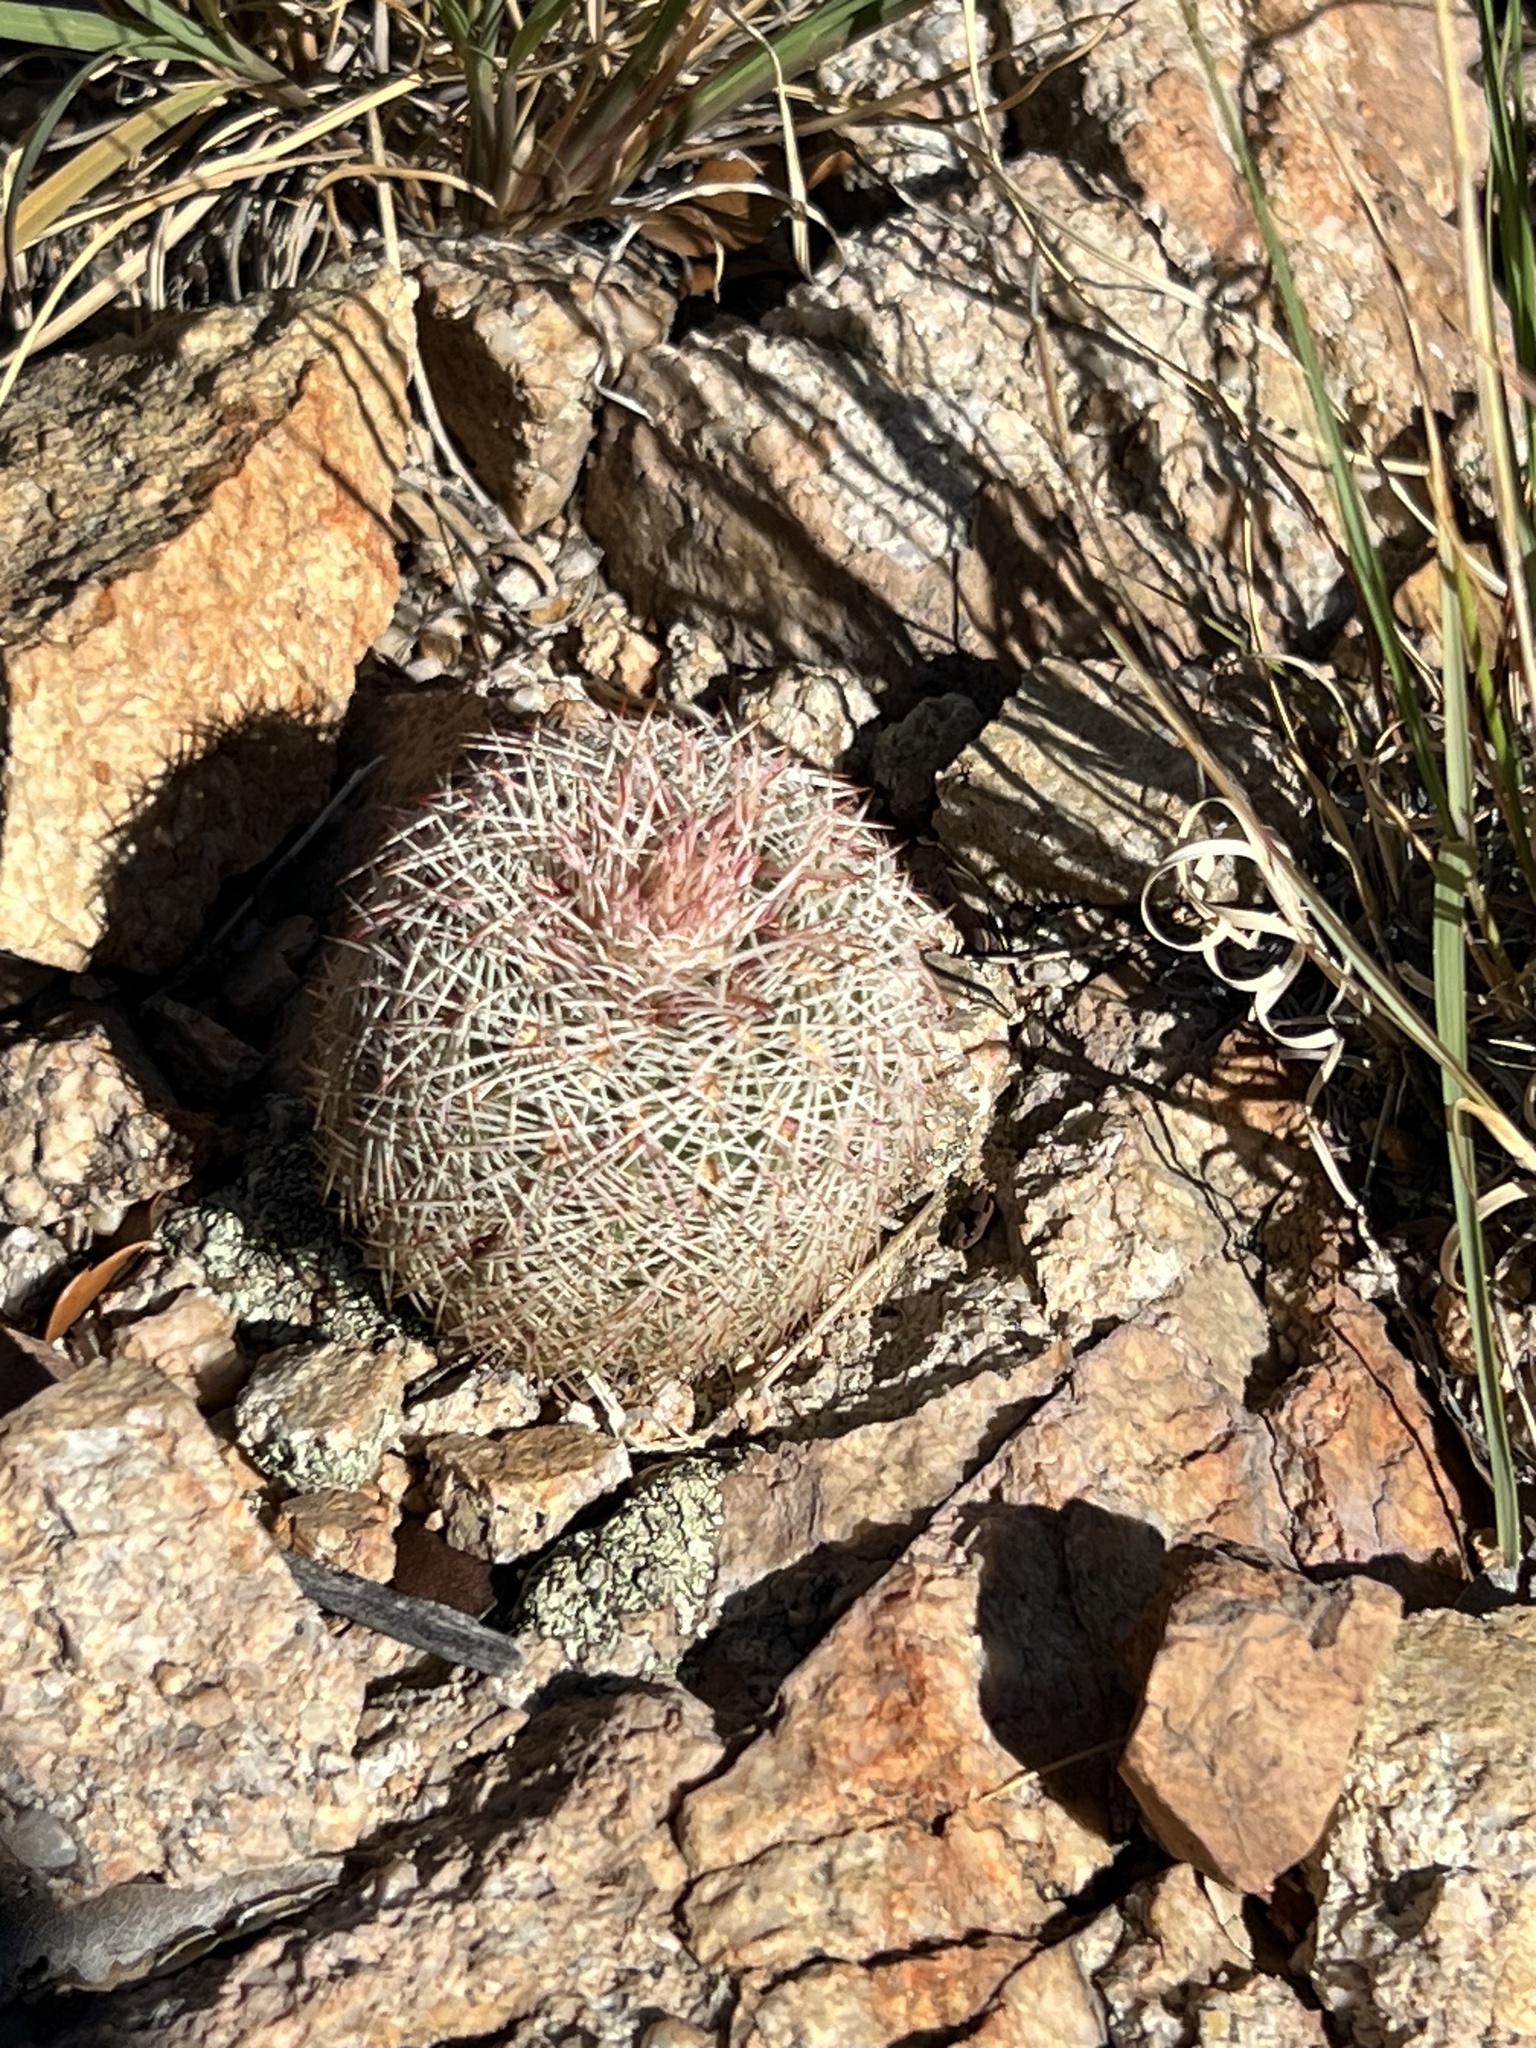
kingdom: Plantae
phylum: Tracheophyta
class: Magnoliopsida
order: Caryophyllales
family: Cactaceae
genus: Echinocereus
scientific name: Echinocereus rigidissimus
